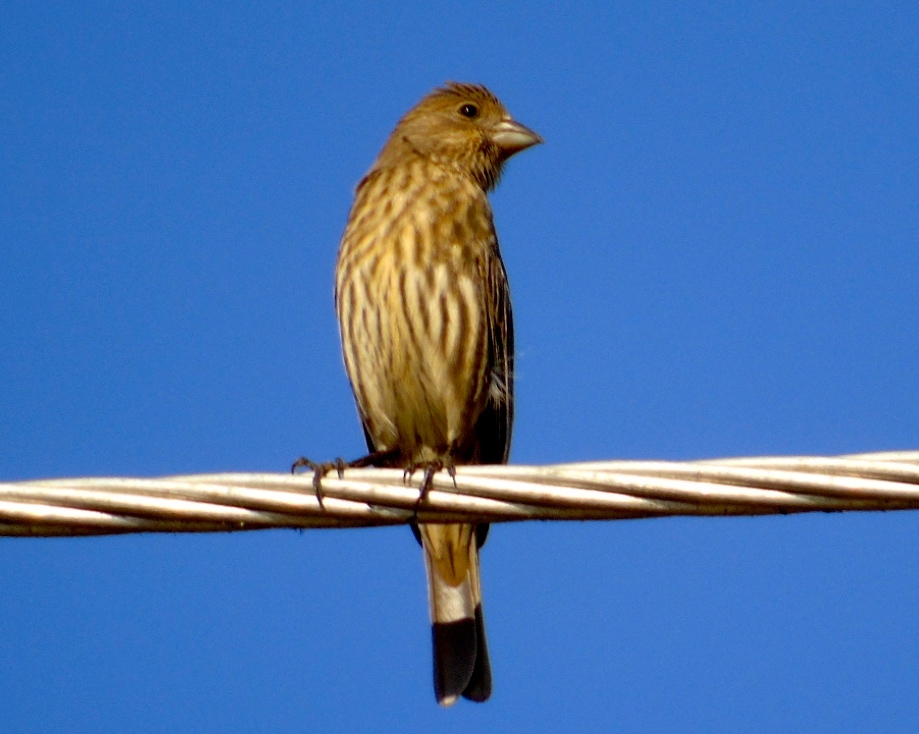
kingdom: Animalia
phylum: Chordata
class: Aves
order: Passeriformes
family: Fringillidae
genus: Haemorhous
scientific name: Haemorhous mexicanus
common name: House finch
